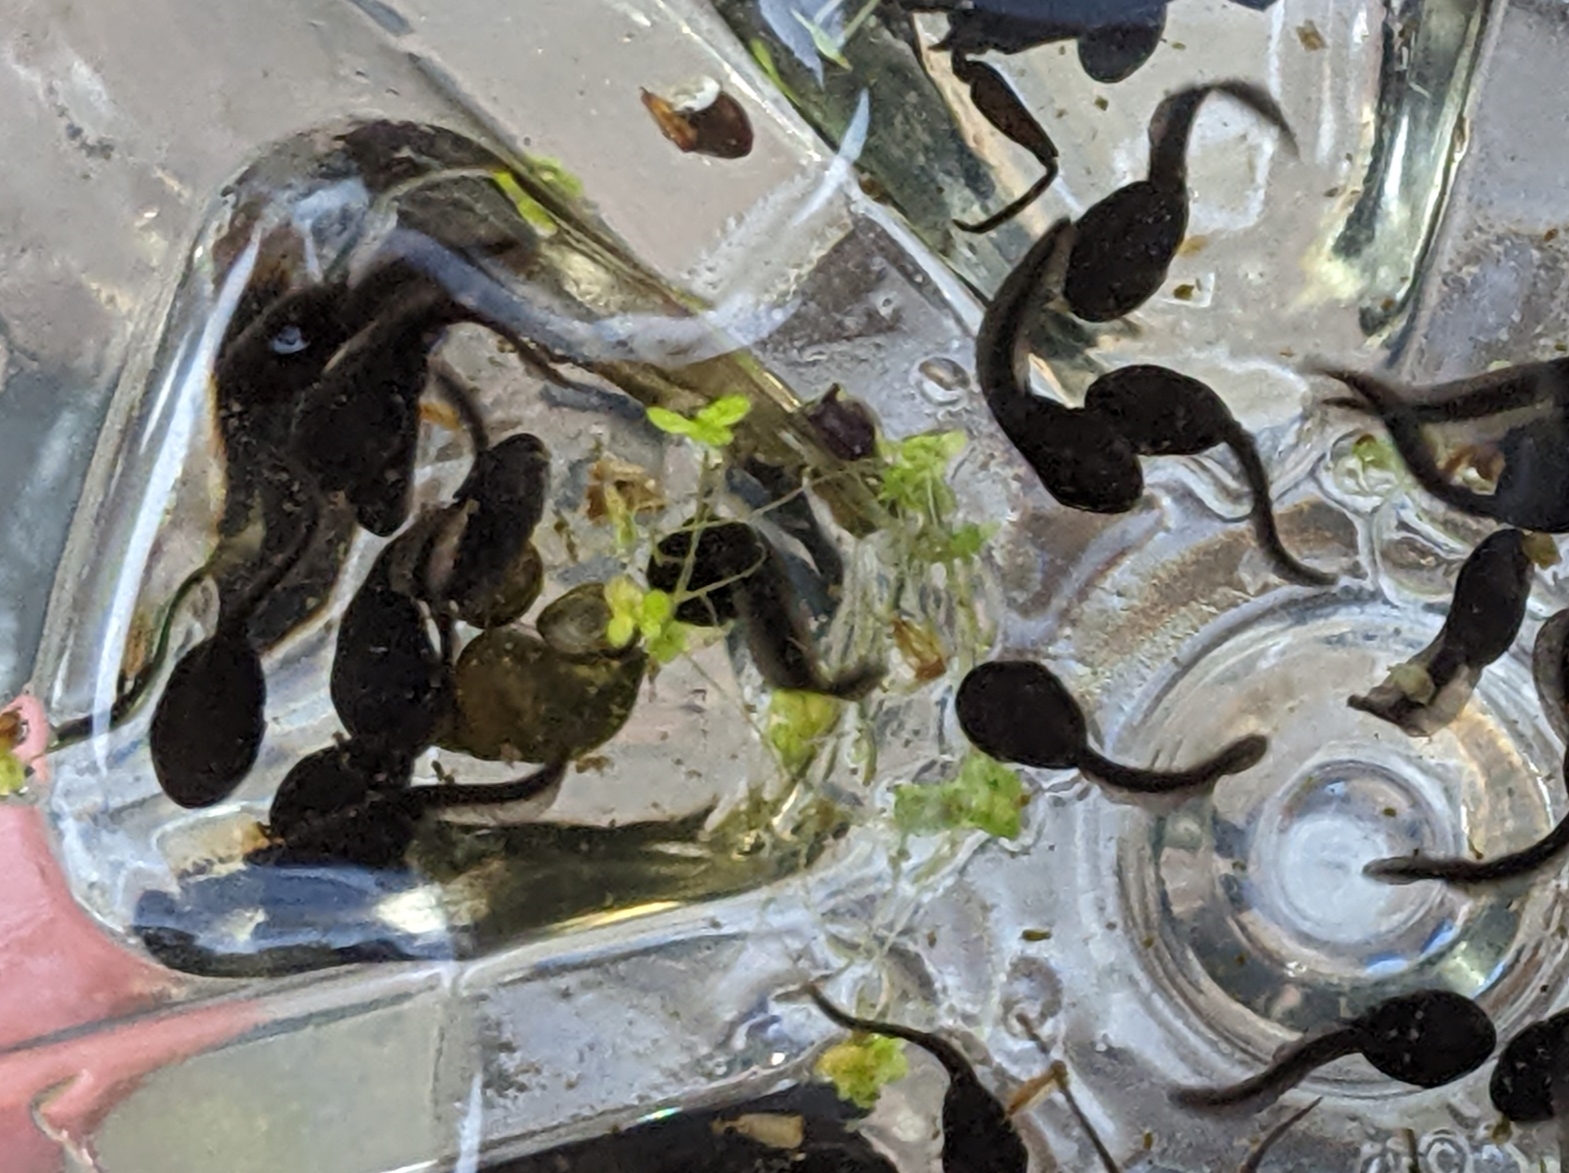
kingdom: Animalia
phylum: Chordata
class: Amphibia
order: Anura
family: Ranidae
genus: Rana
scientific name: Rana temporaria
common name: Common frog
